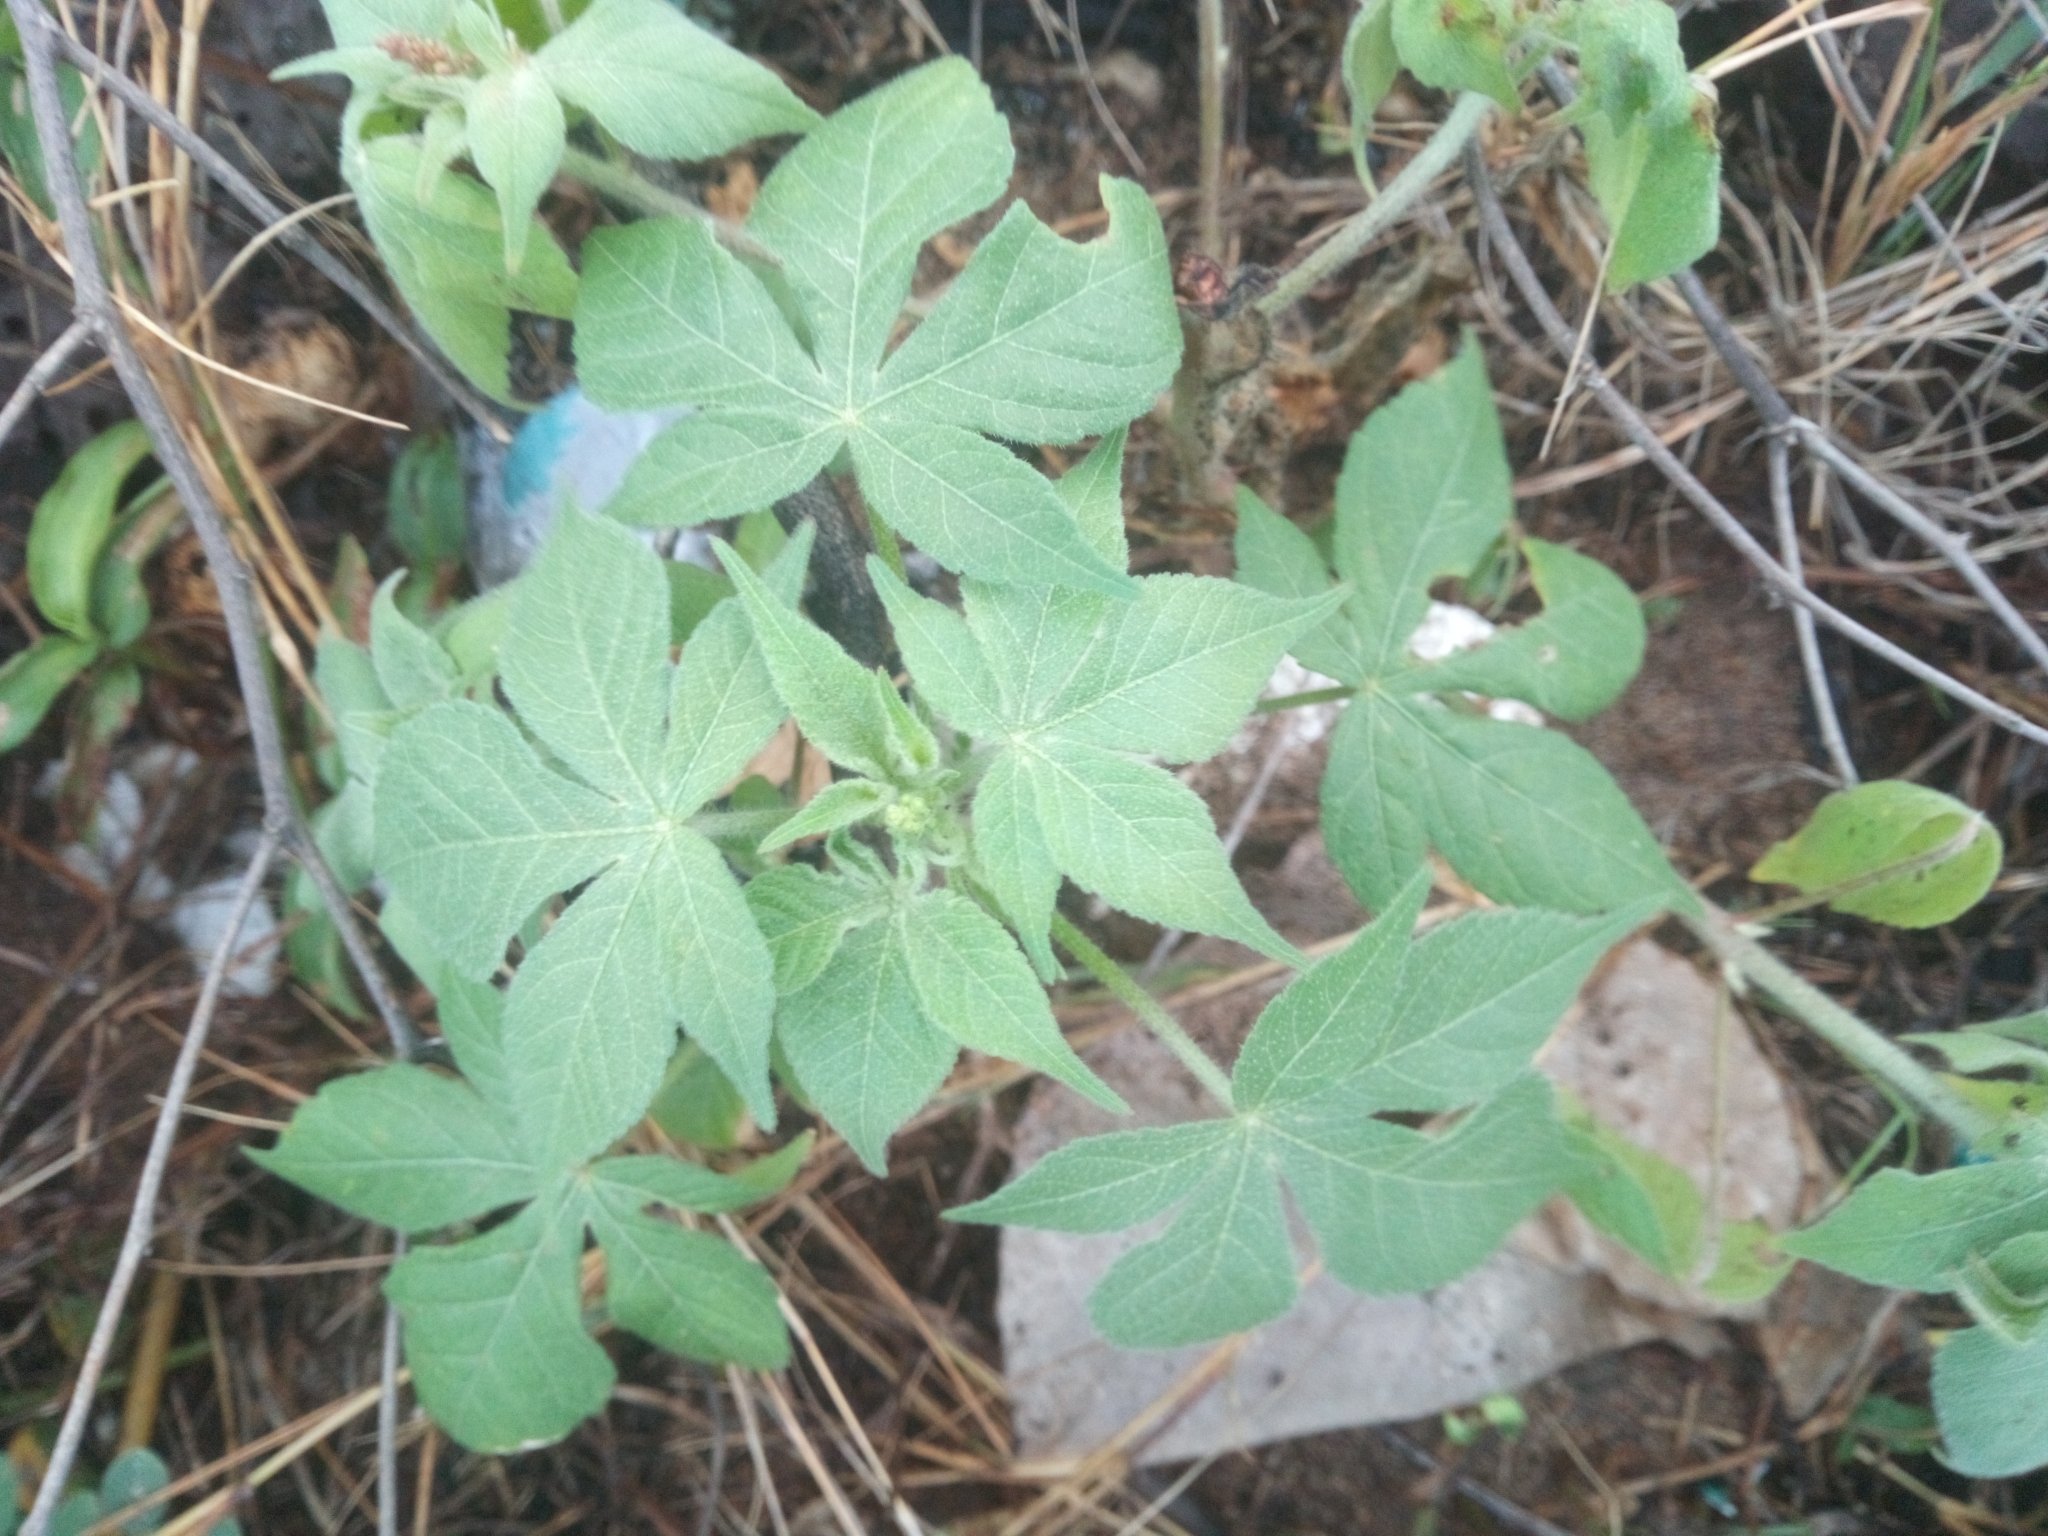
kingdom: Plantae
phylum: Tracheophyta
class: Magnoliopsida
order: Malpighiales
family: Euphorbiaceae
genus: Astraea
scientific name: Astraea lobata
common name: Lobed croton
